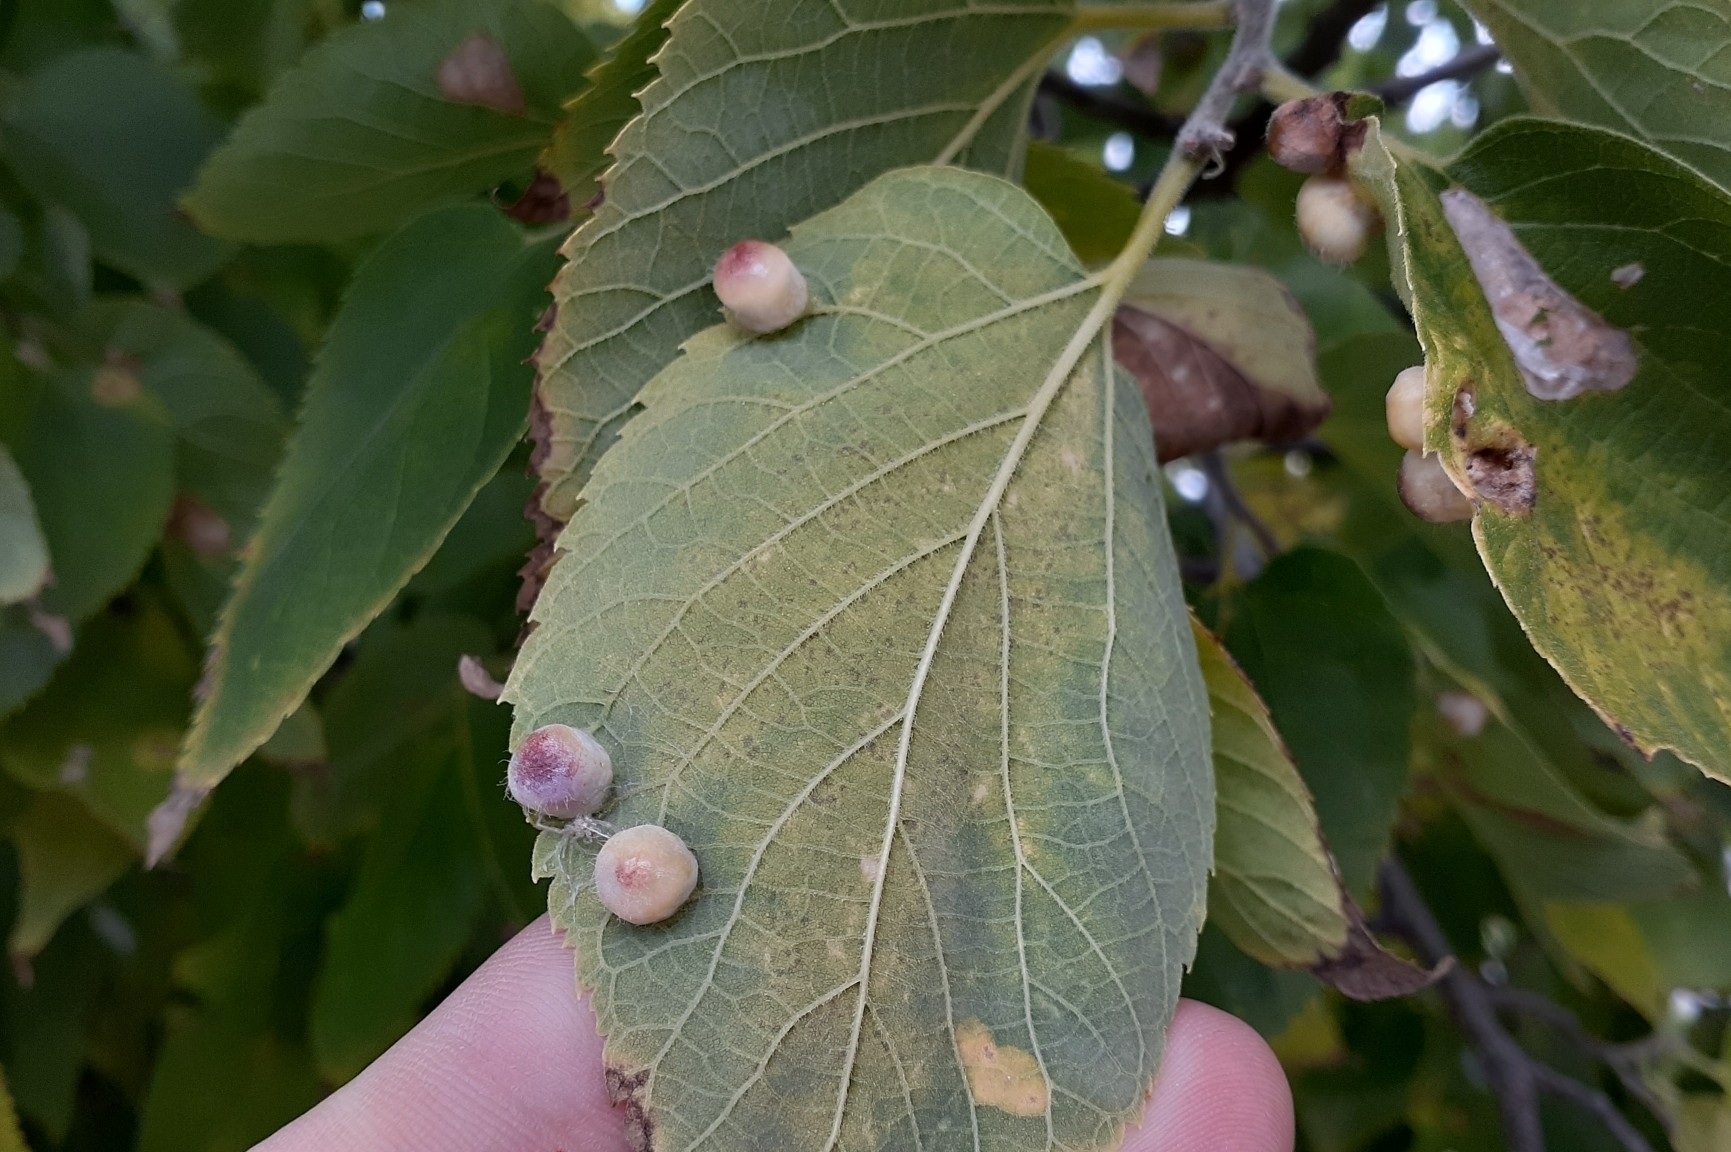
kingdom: Animalia
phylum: Arthropoda
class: Insecta
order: Hemiptera
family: Aphalaridae
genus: Pachypsylla
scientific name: Pachypsylla celtidismamma
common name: Hackberry nipplegall psyllid
